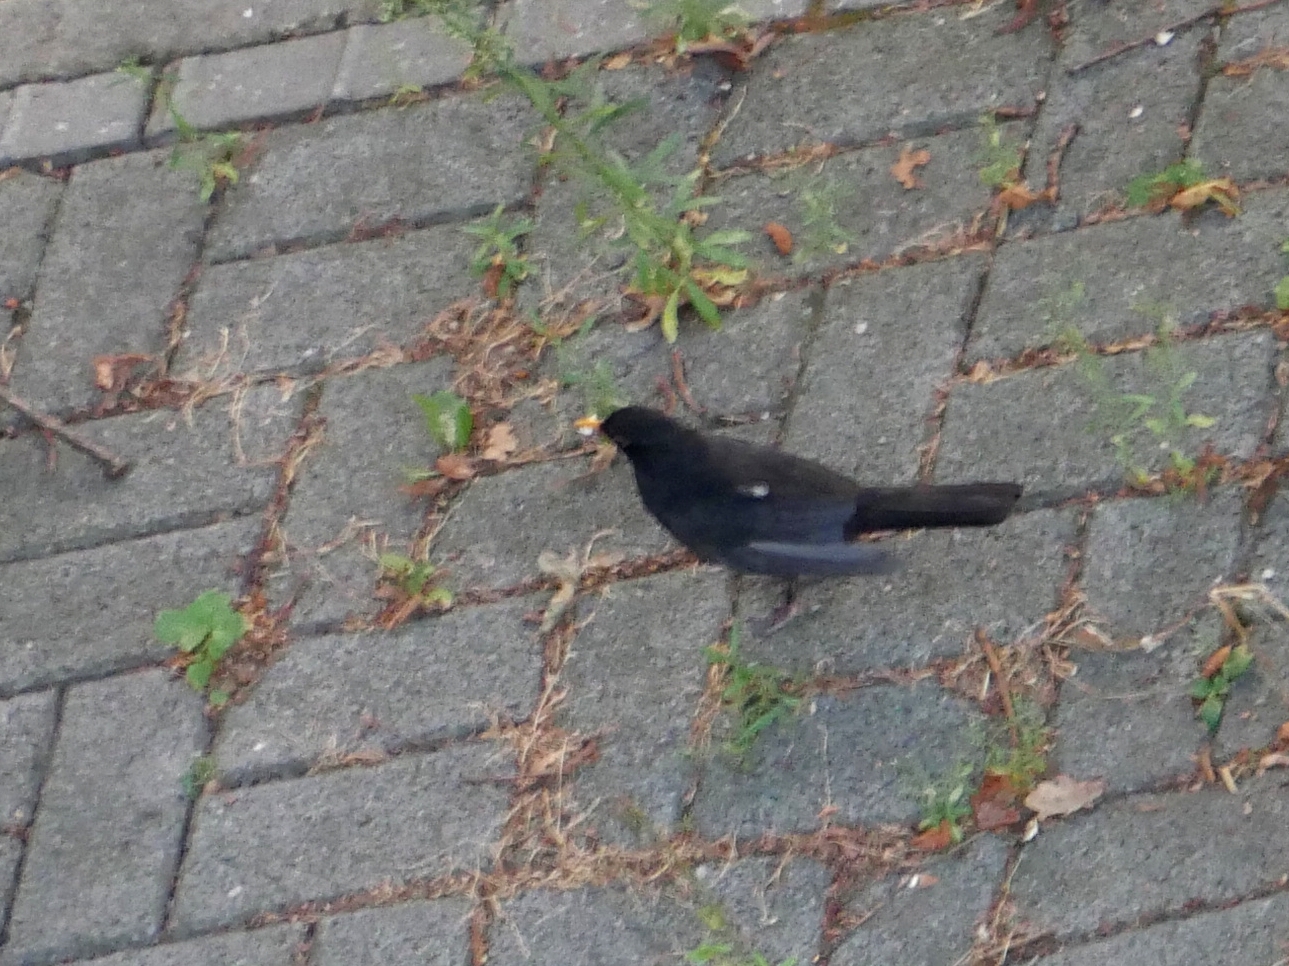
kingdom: Animalia
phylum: Chordata
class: Aves
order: Passeriformes
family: Turdidae
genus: Turdus
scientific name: Turdus merula
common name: Common blackbird
